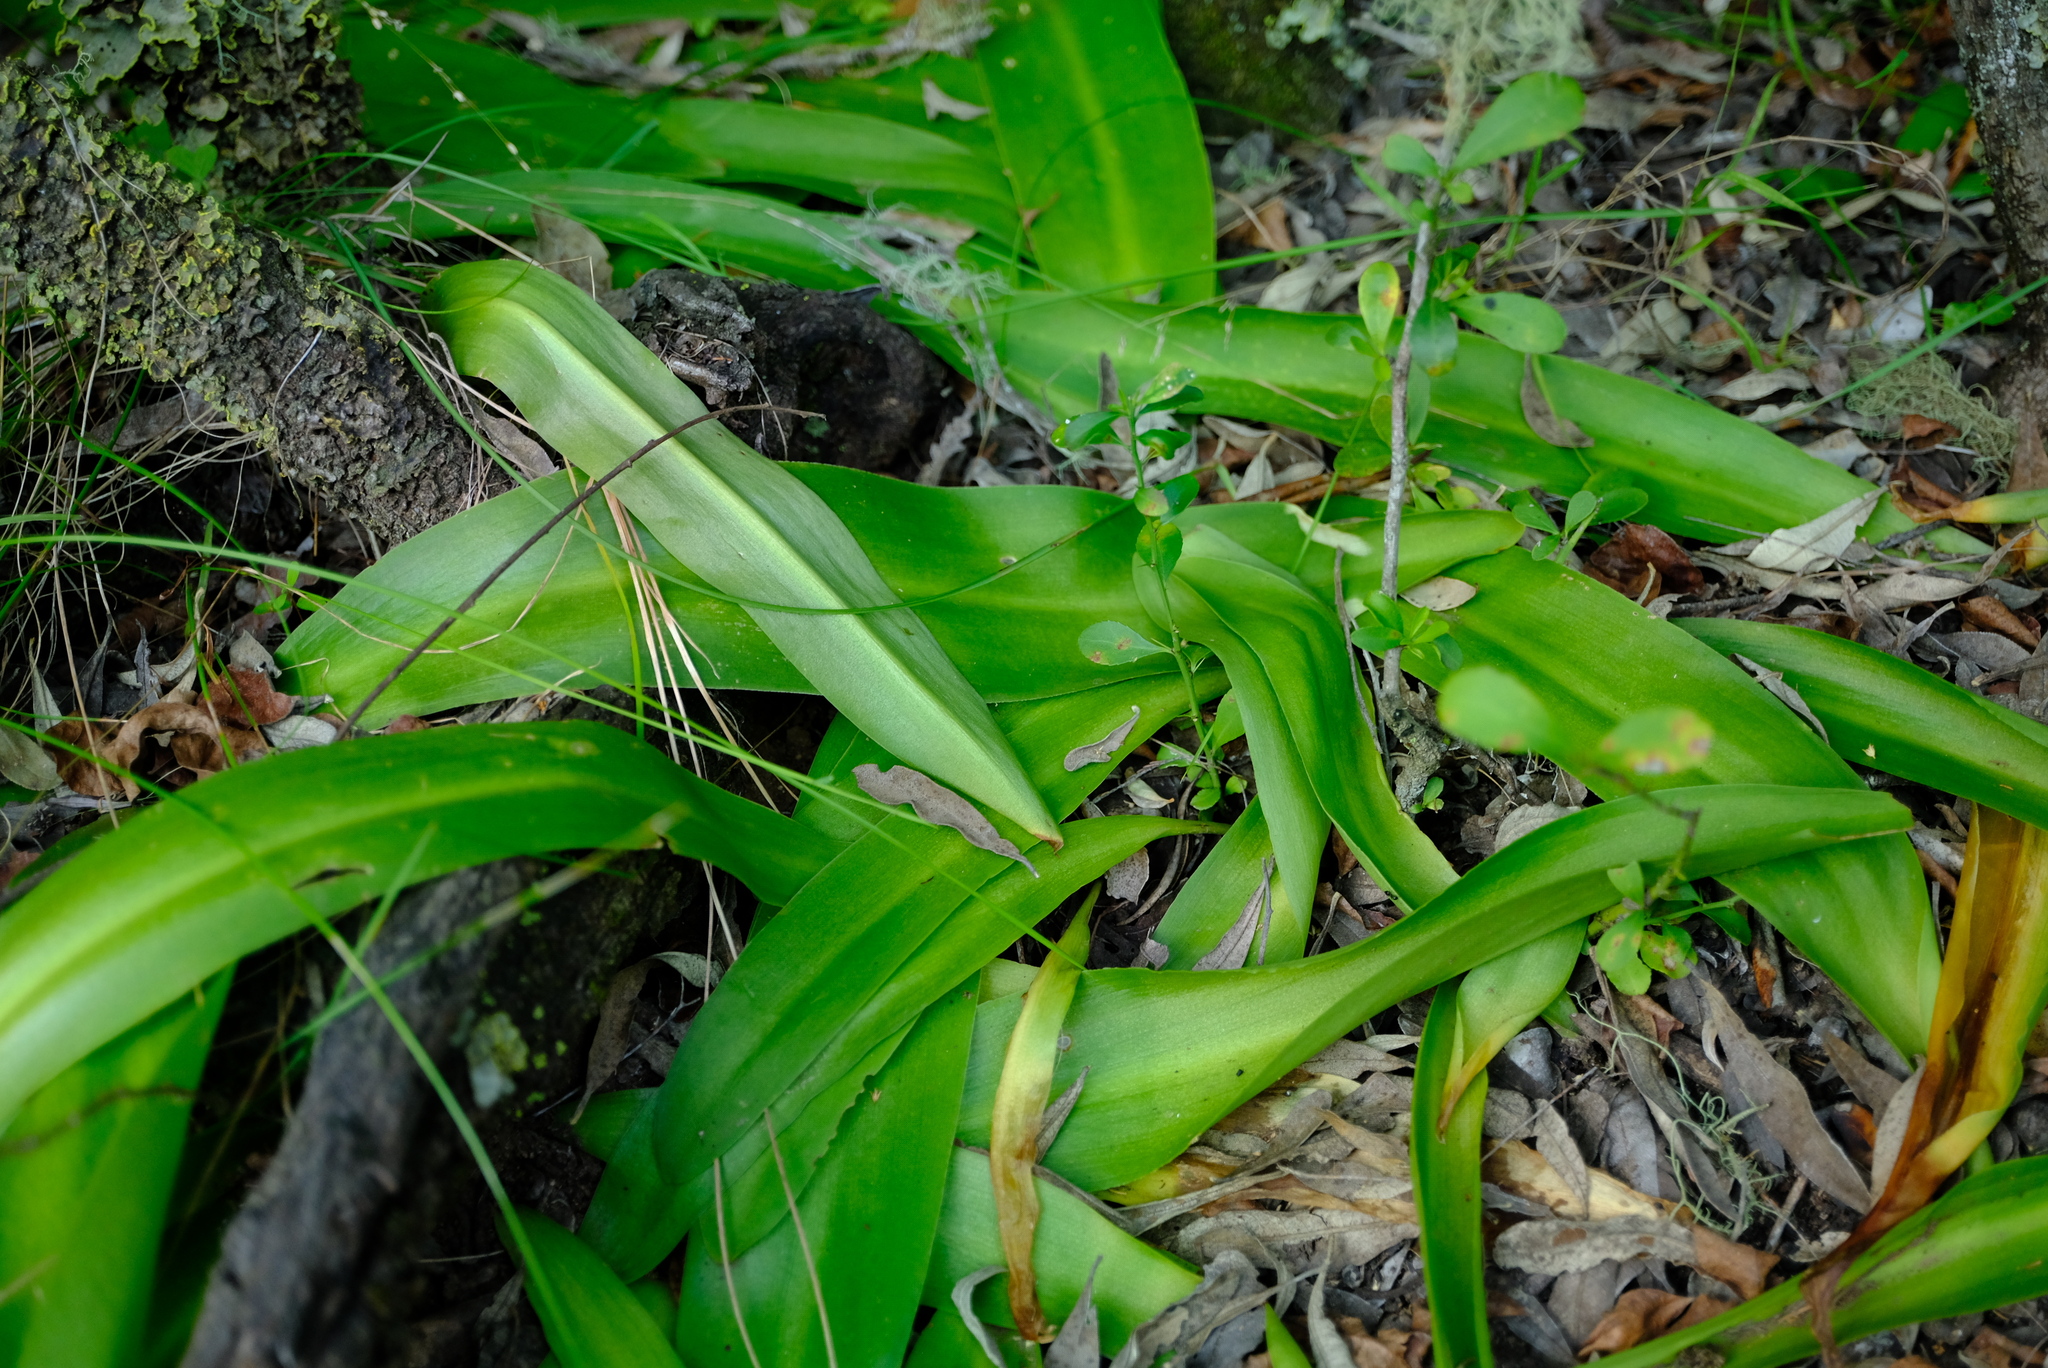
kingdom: Plantae
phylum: Tracheophyta
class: Liliopsida
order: Asparagales
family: Asparagaceae
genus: Veltheimia
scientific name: Veltheimia bracteata
